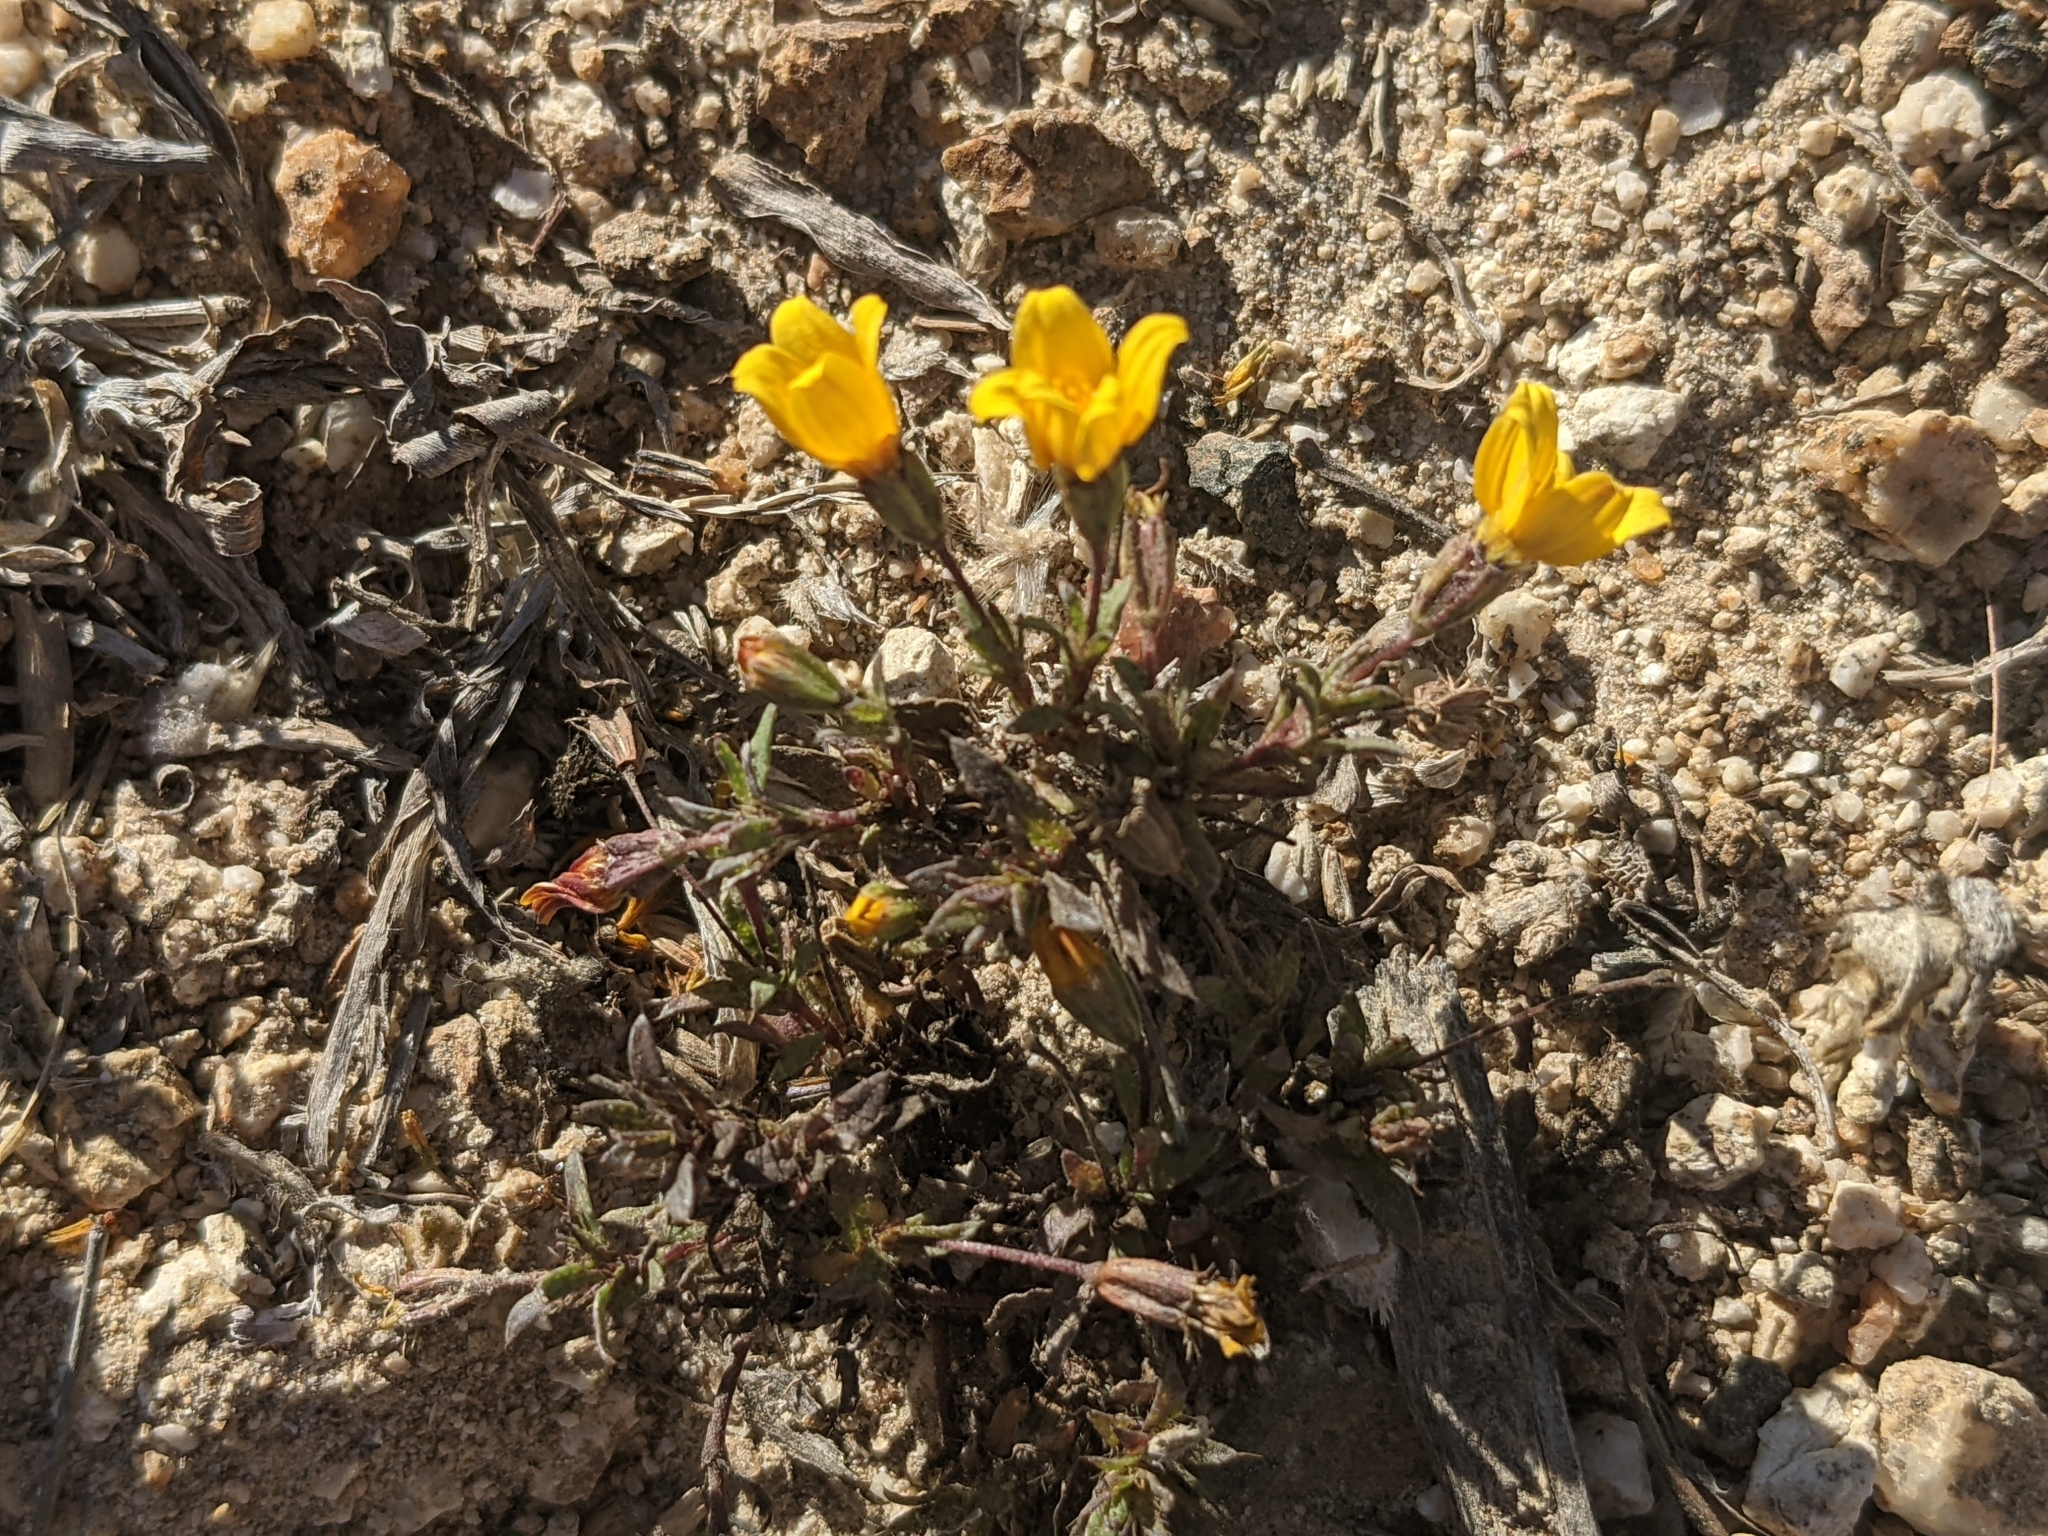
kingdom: Plantae
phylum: Tracheophyta
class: Magnoliopsida
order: Asterales
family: Asteraceae
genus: Pectis
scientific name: Pectis multiseta
